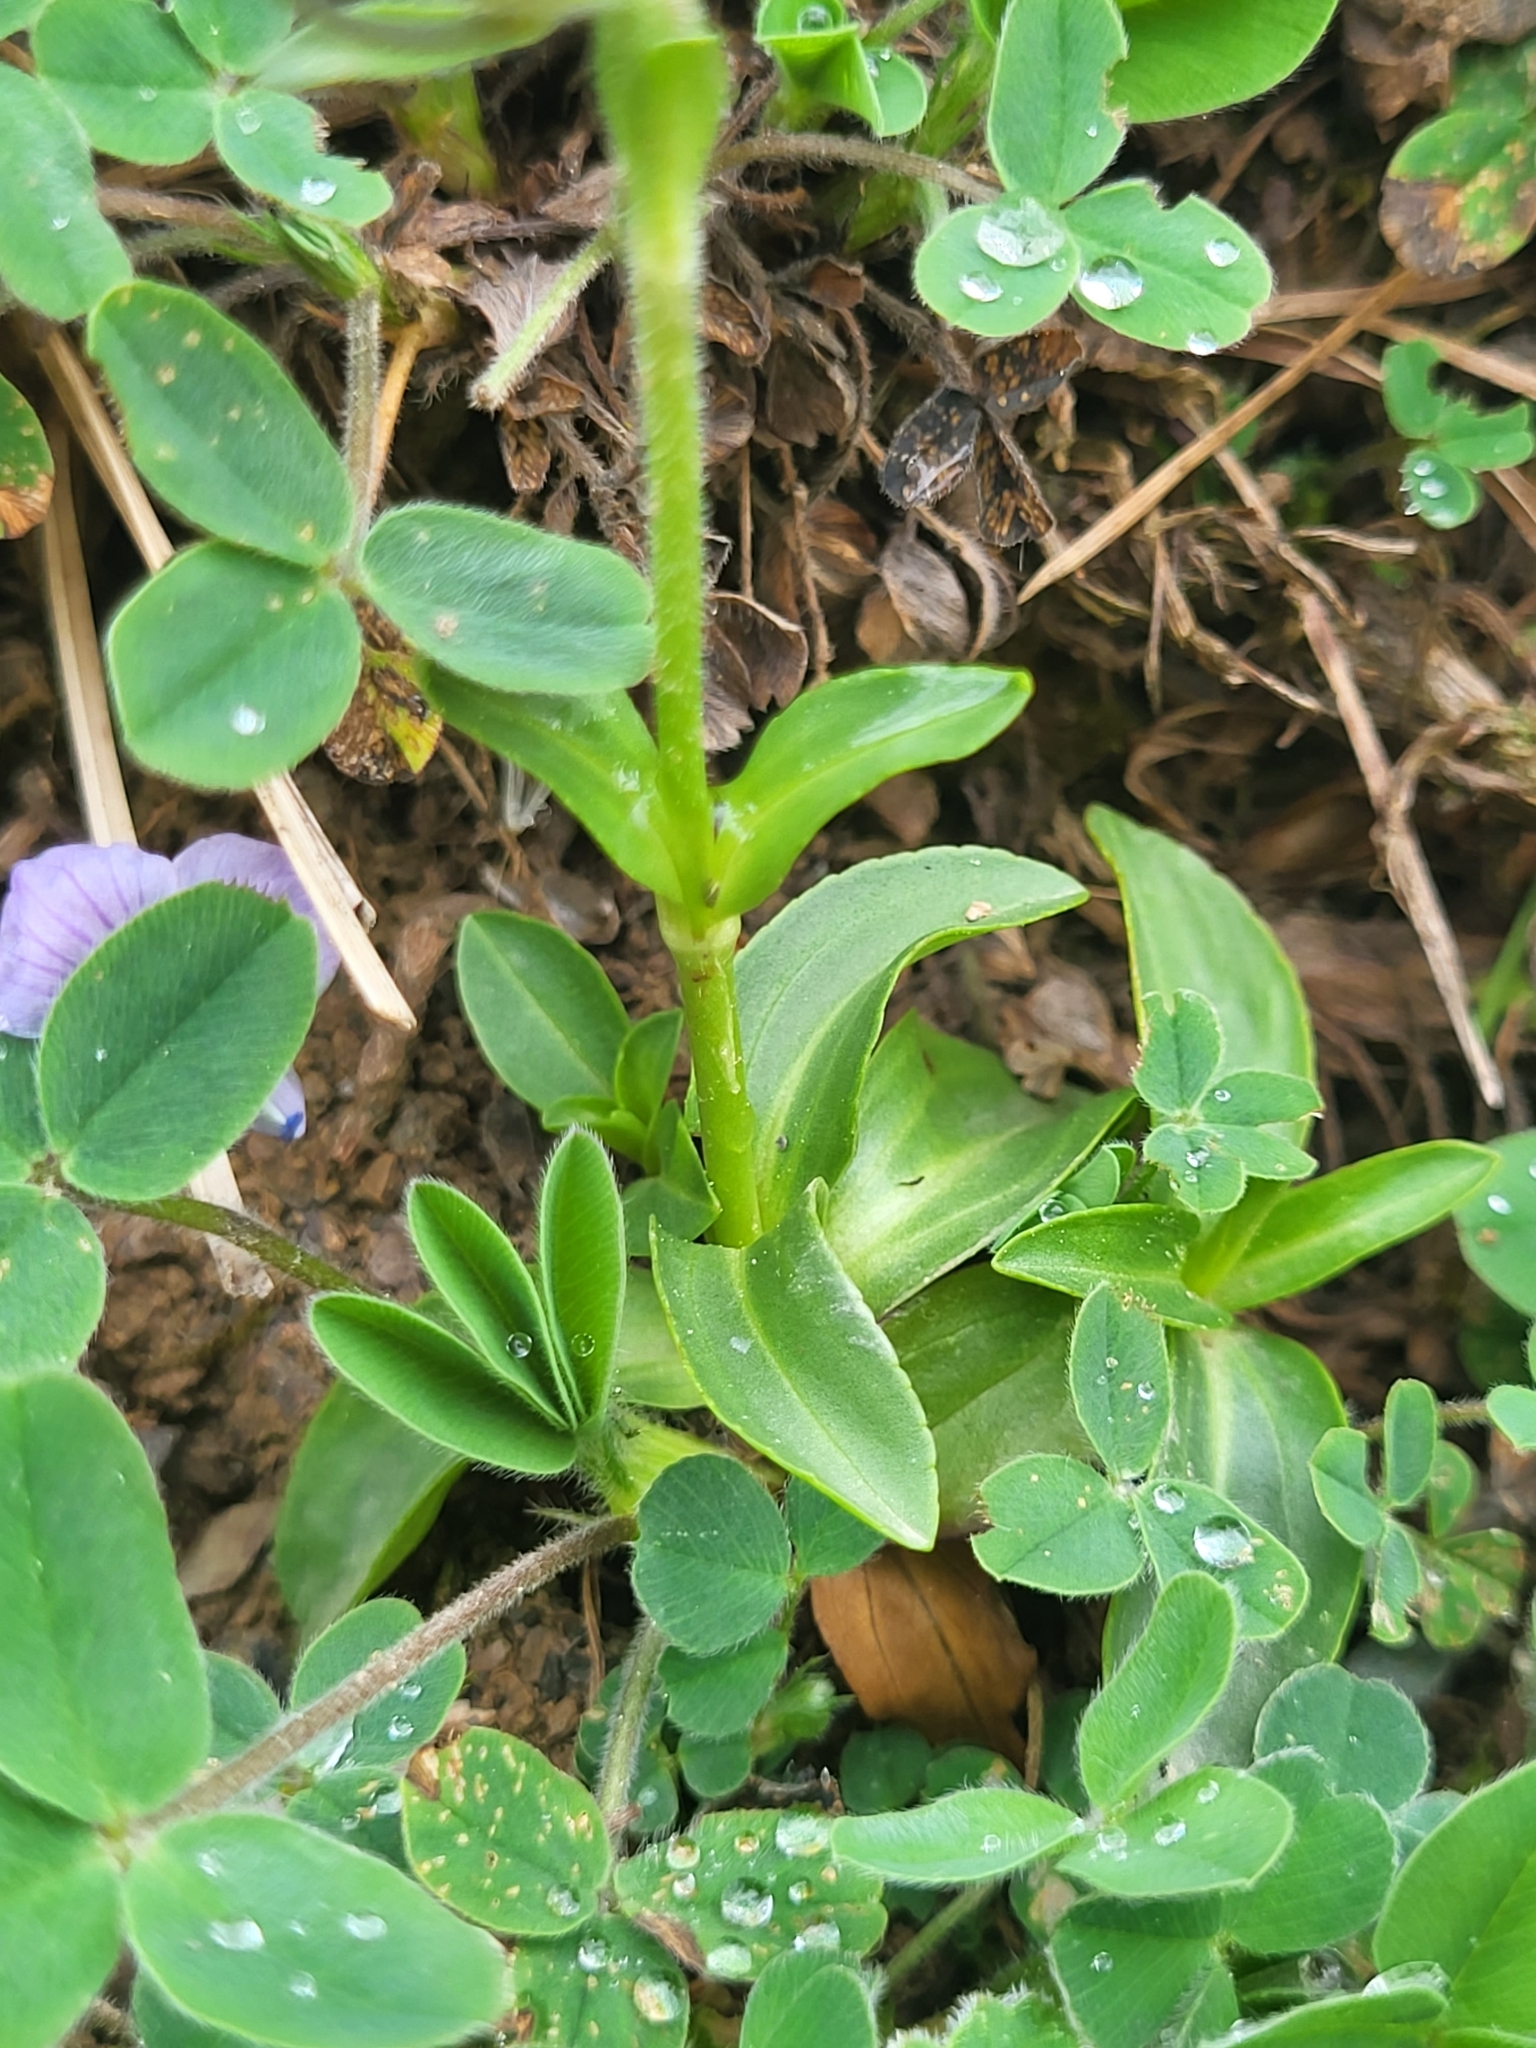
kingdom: Plantae
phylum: Tracheophyta
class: Magnoliopsida
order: Lamiales
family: Plantaginaceae
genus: Veronica
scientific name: Veronica gentianoides
